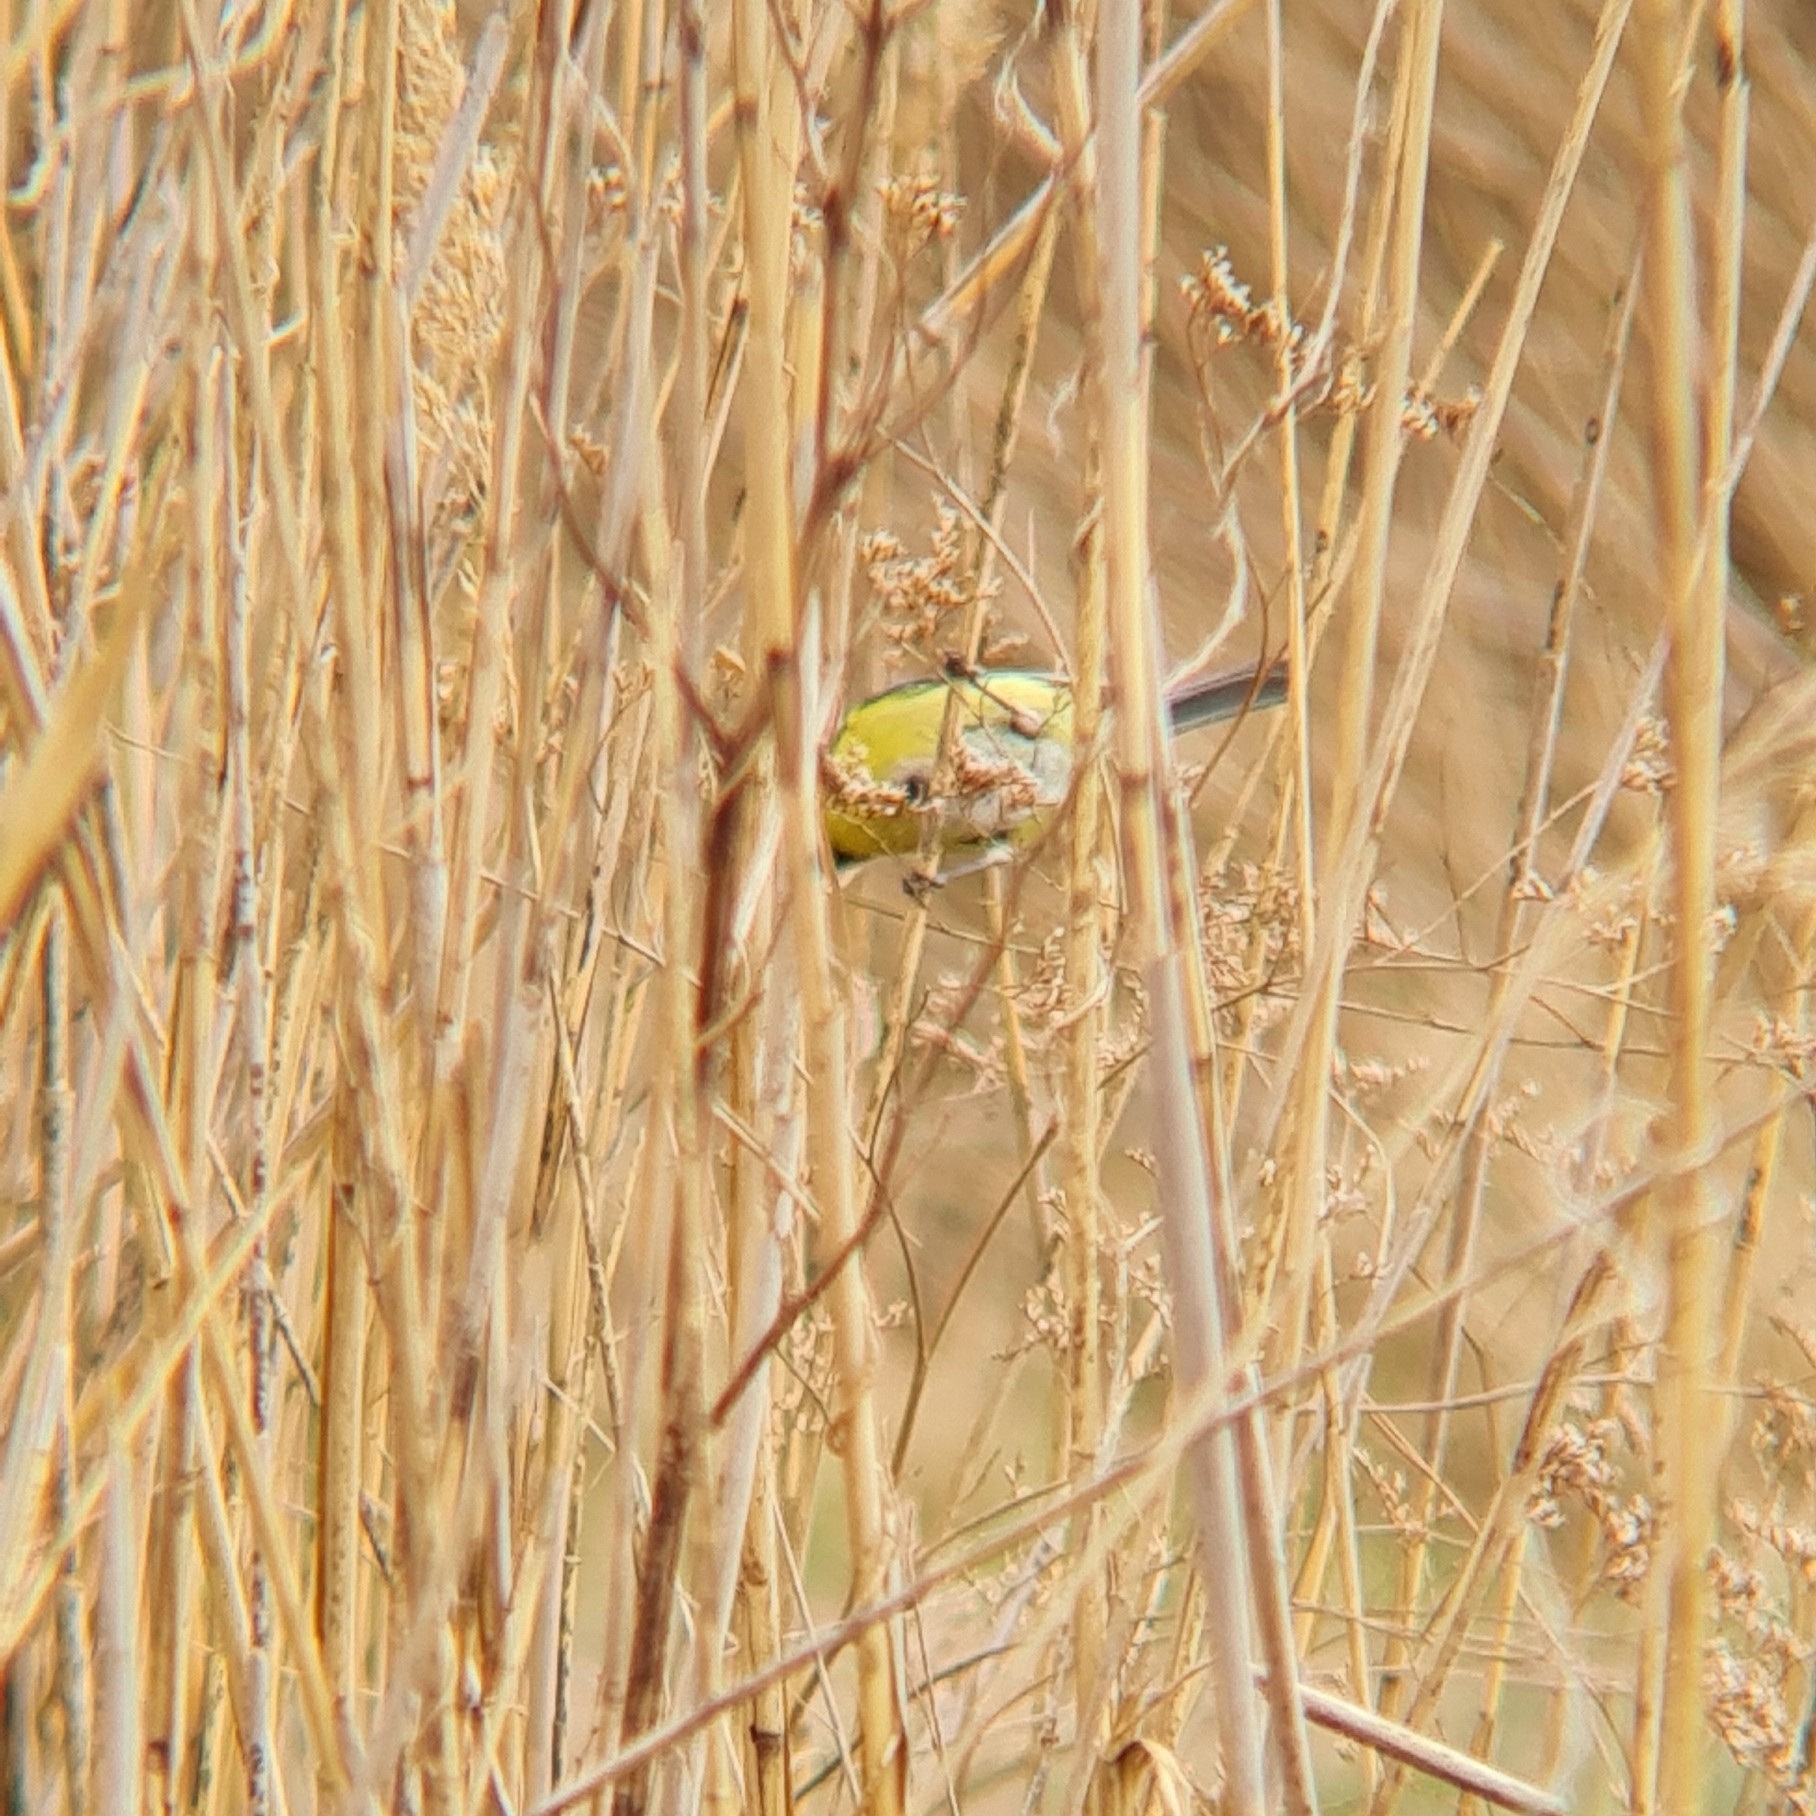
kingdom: Animalia
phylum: Chordata
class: Aves
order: Passeriformes
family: Paridae
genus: Cyanistes
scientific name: Cyanistes caeruleus
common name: Eurasian blue tit
